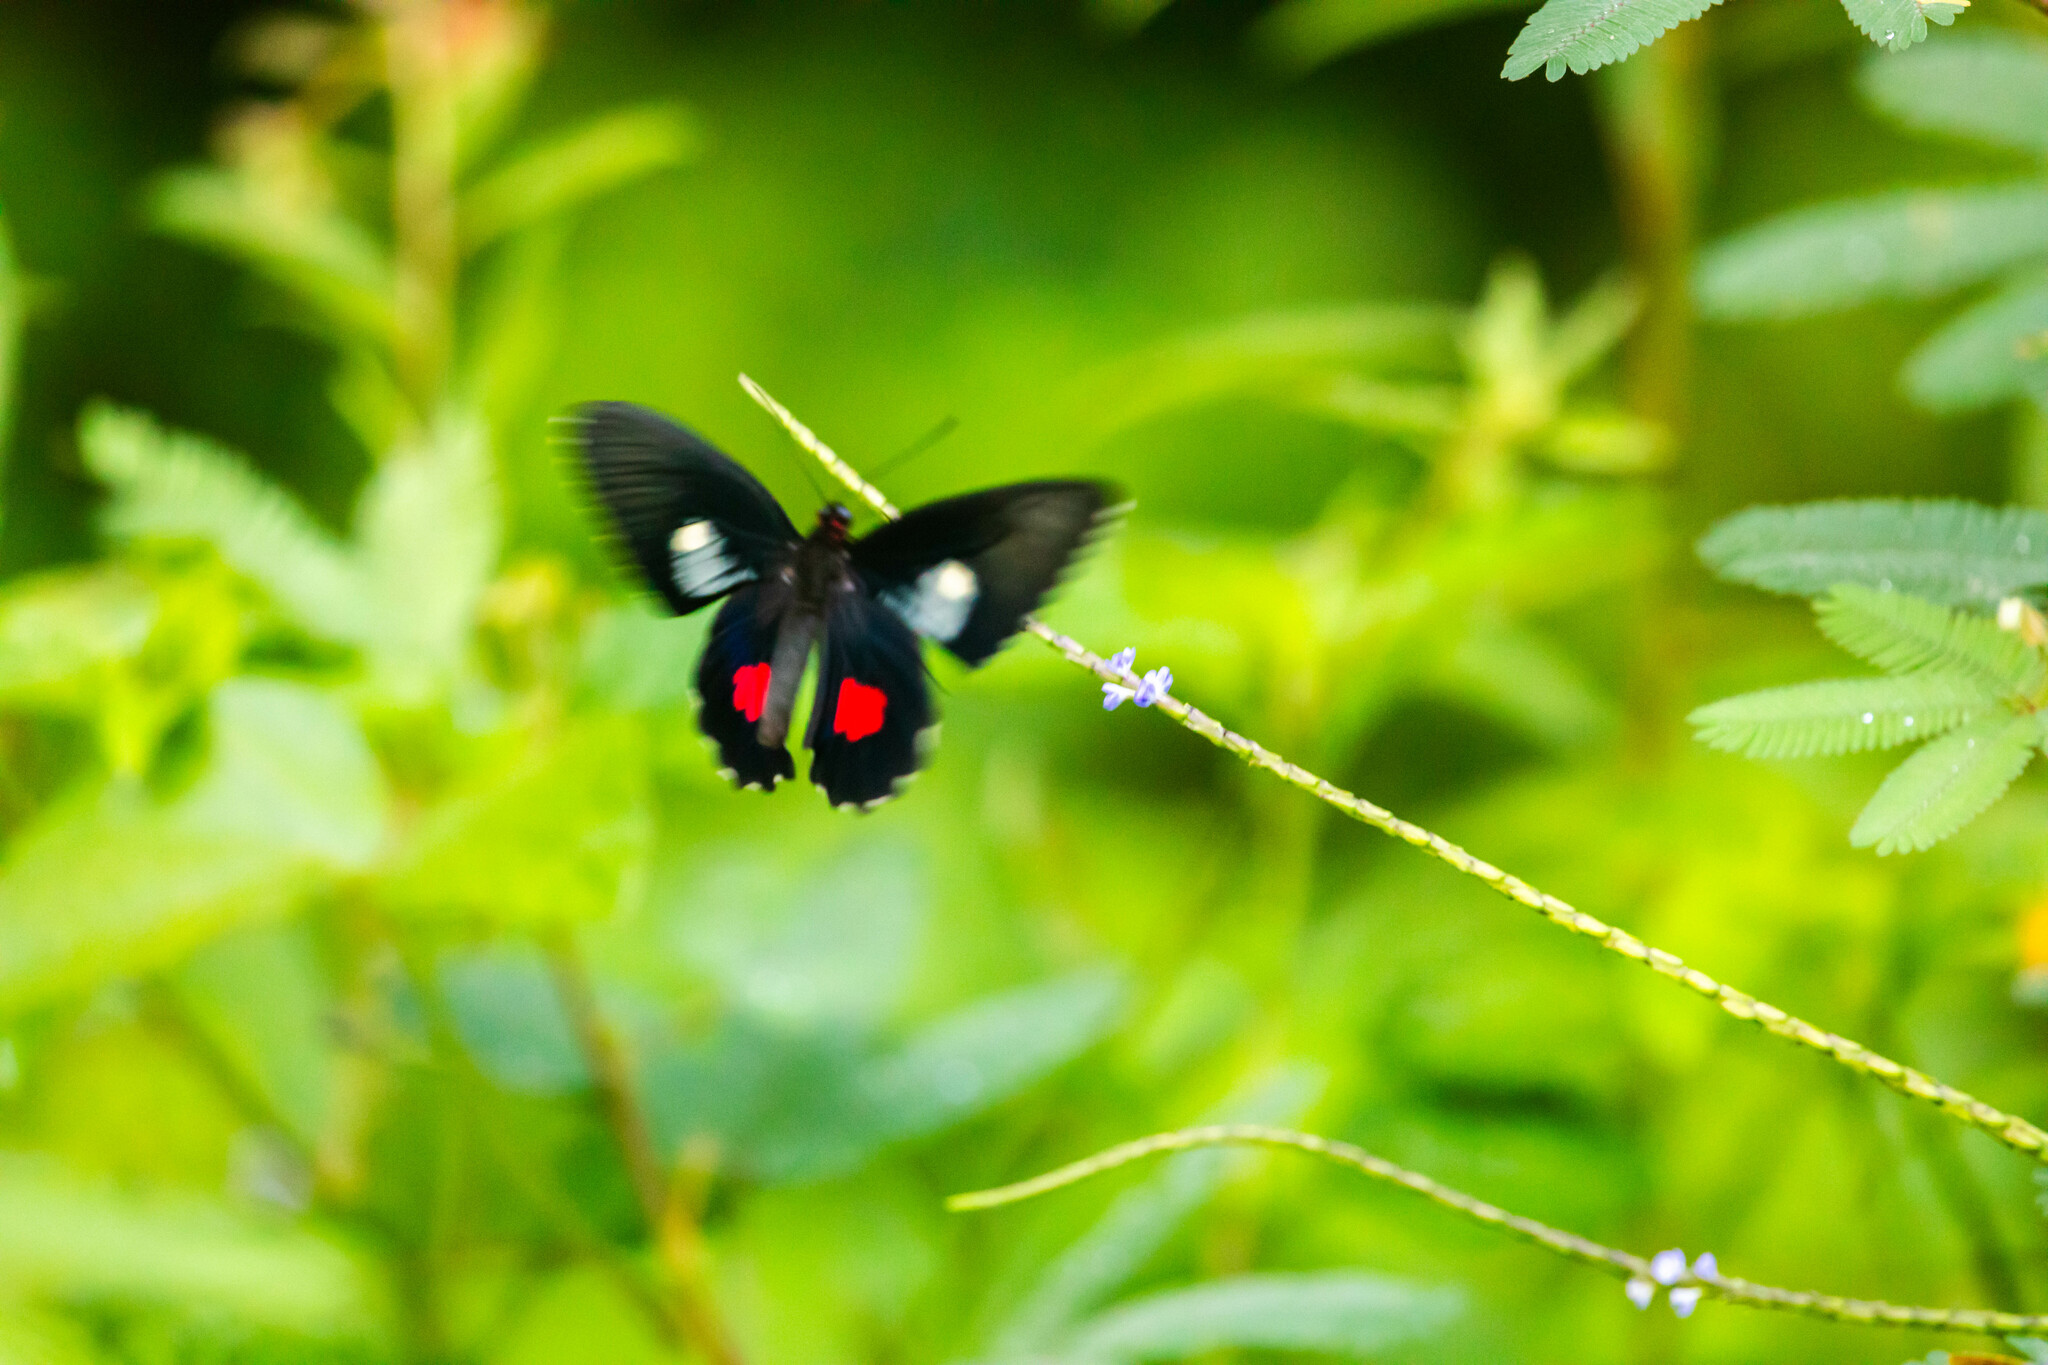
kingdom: Animalia
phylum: Arthropoda
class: Insecta
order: Lepidoptera
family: Papilionidae
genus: Parides
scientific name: Parides anchises
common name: Cattle heart
